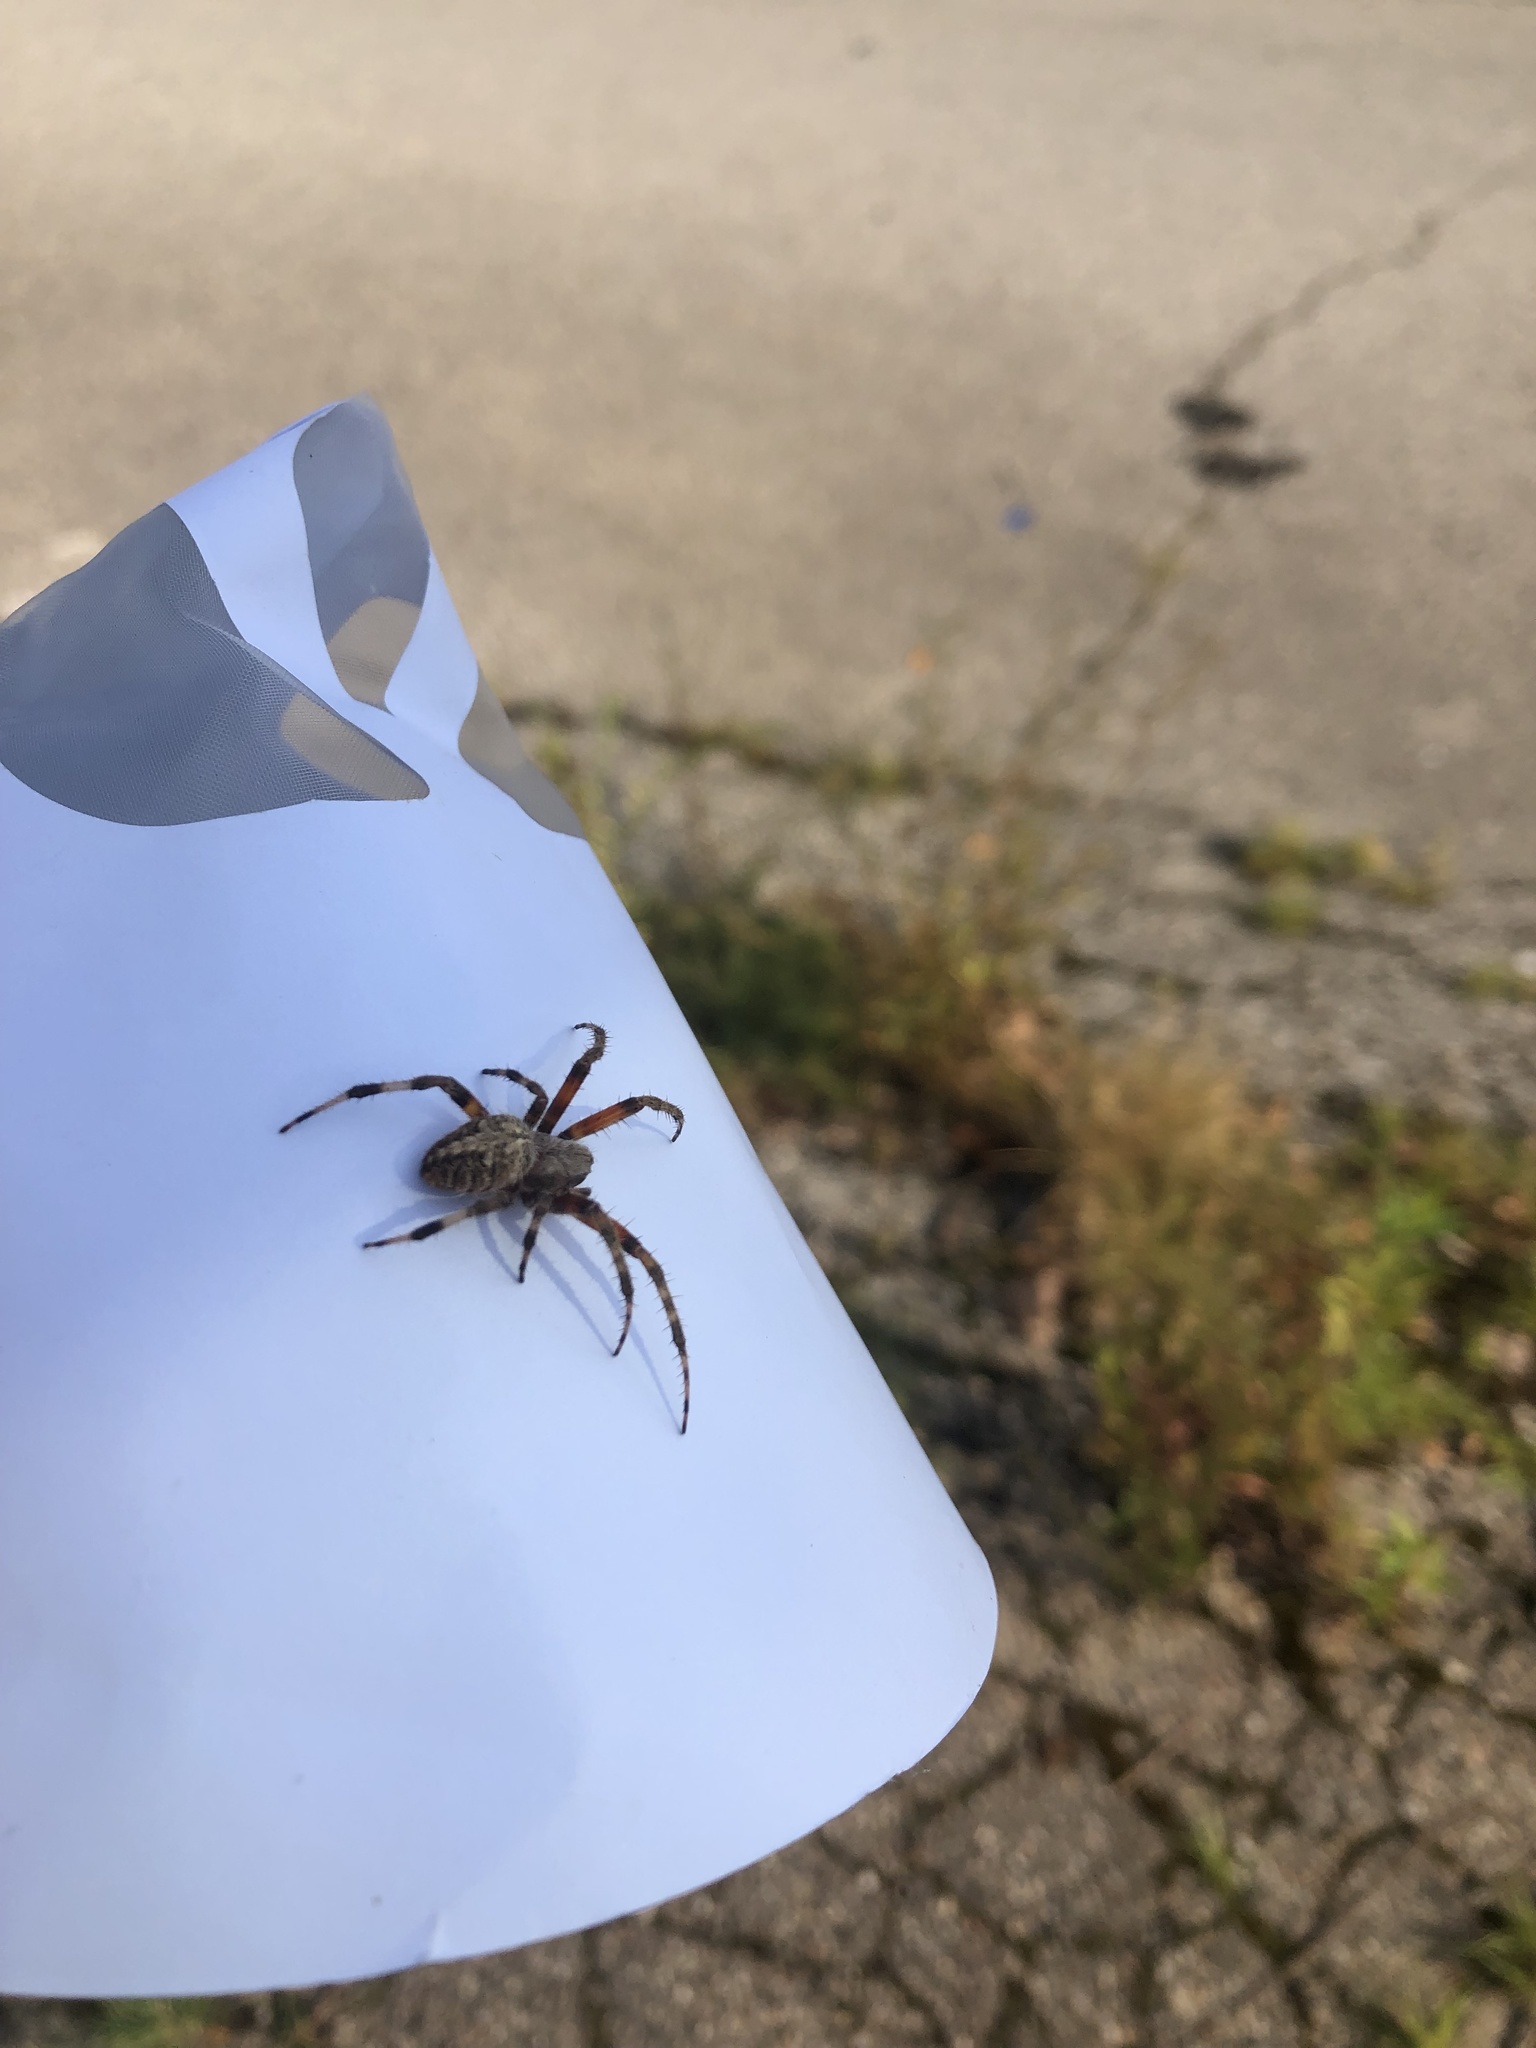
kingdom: Animalia
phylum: Arthropoda
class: Arachnida
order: Araneae
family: Araneidae
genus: Neoscona
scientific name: Neoscona crucifera
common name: Spotted orbweaver
